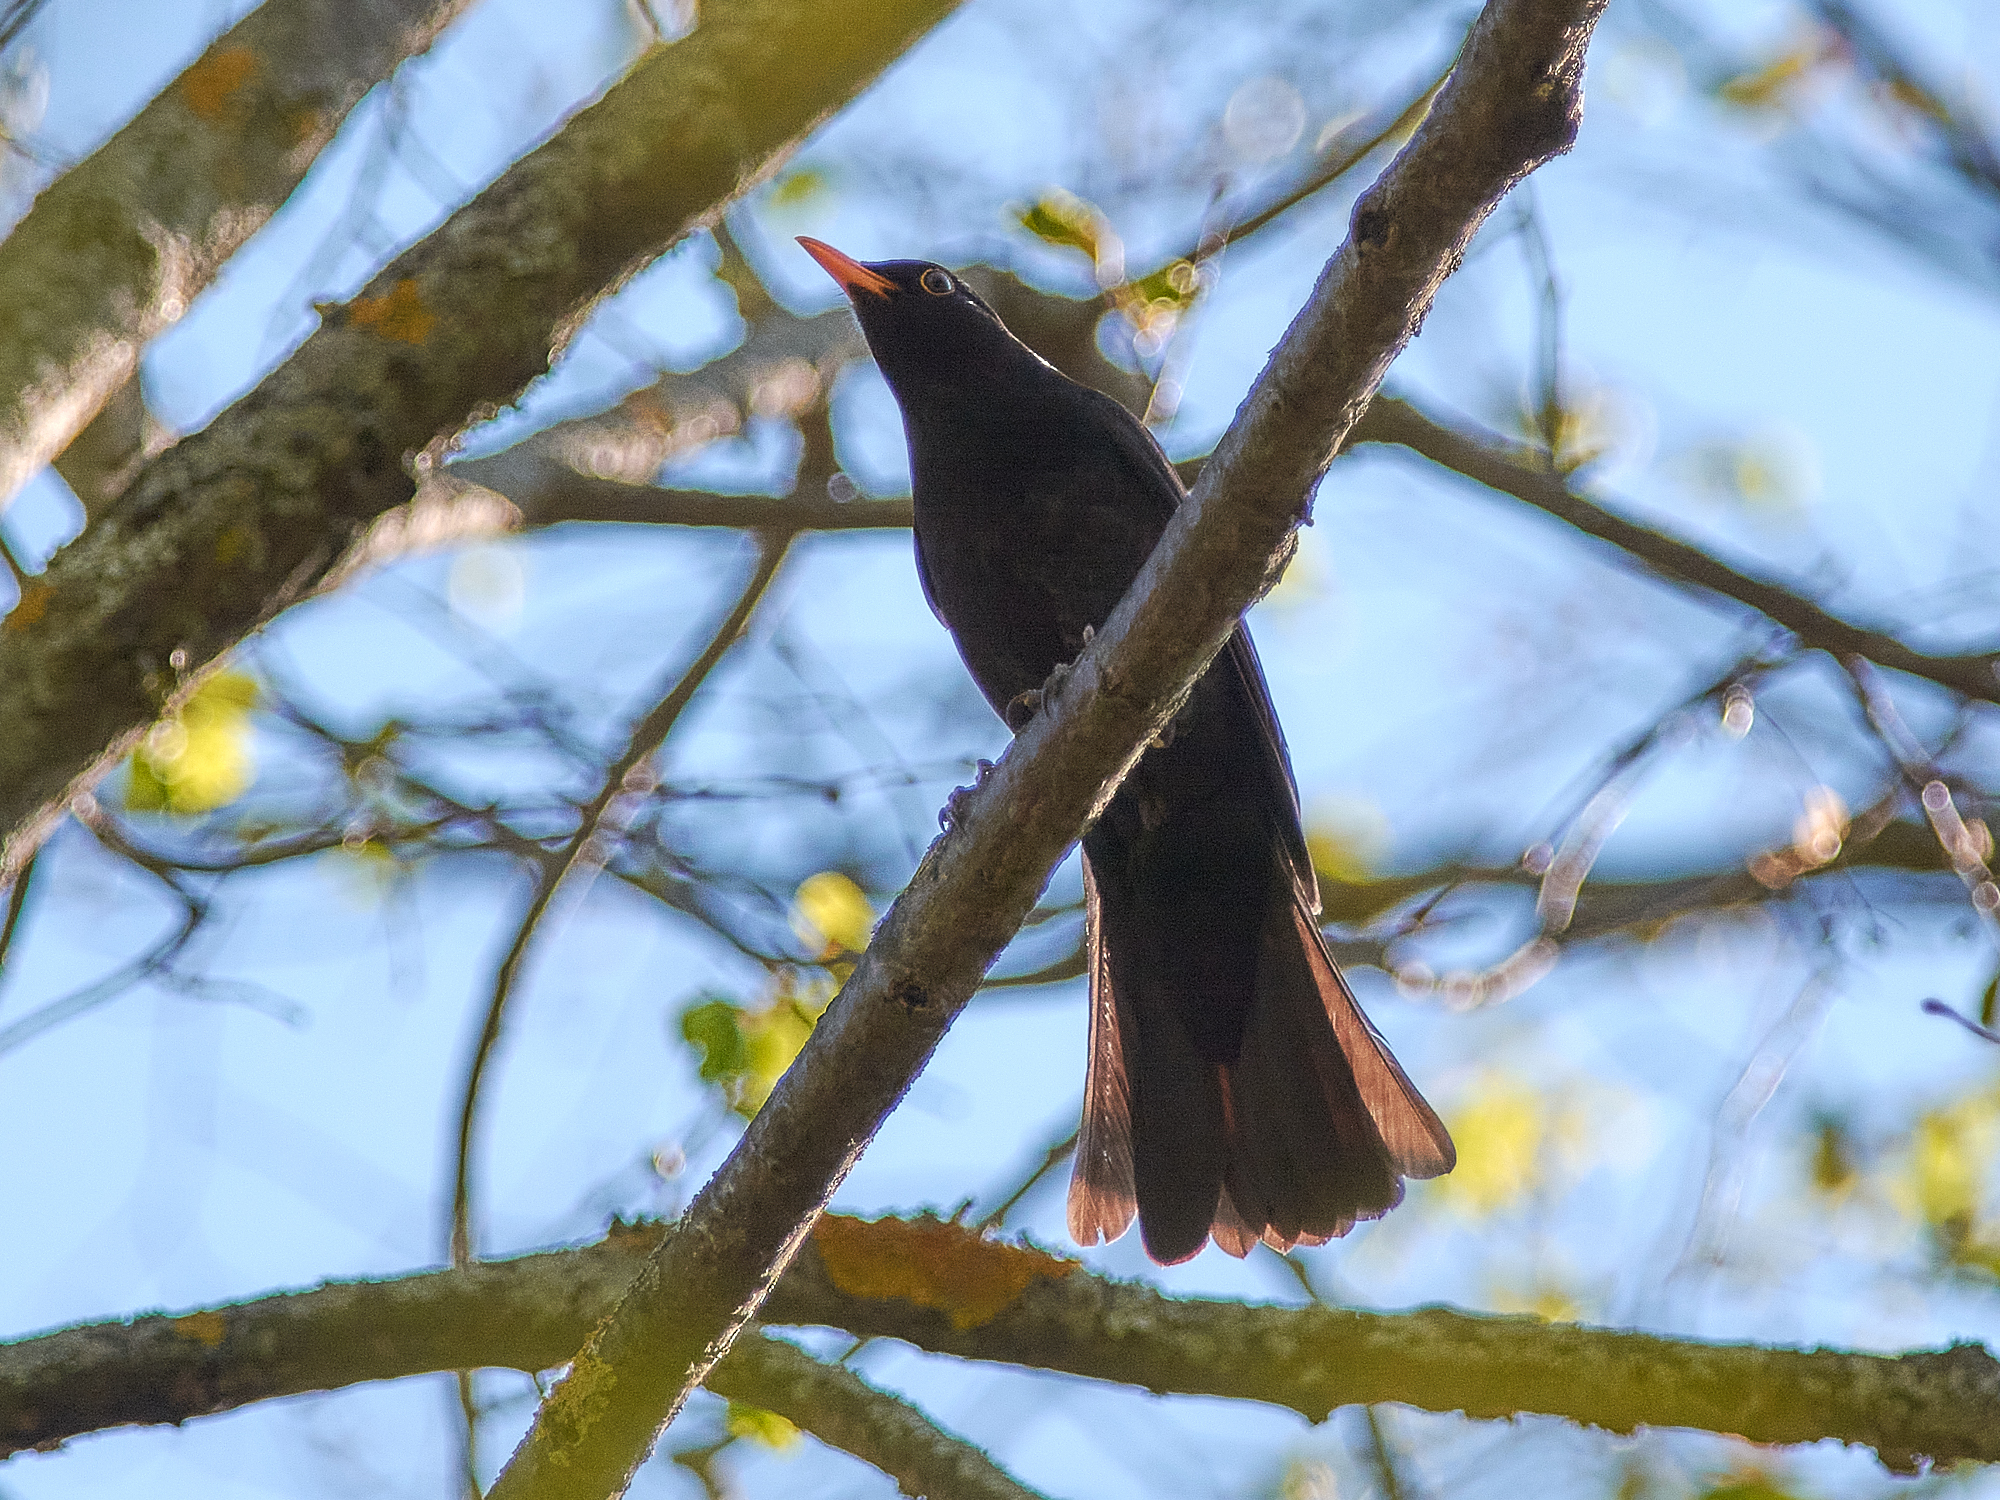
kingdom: Animalia
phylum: Chordata
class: Aves
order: Passeriformes
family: Turdidae
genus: Turdus
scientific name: Turdus merula
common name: Common blackbird
